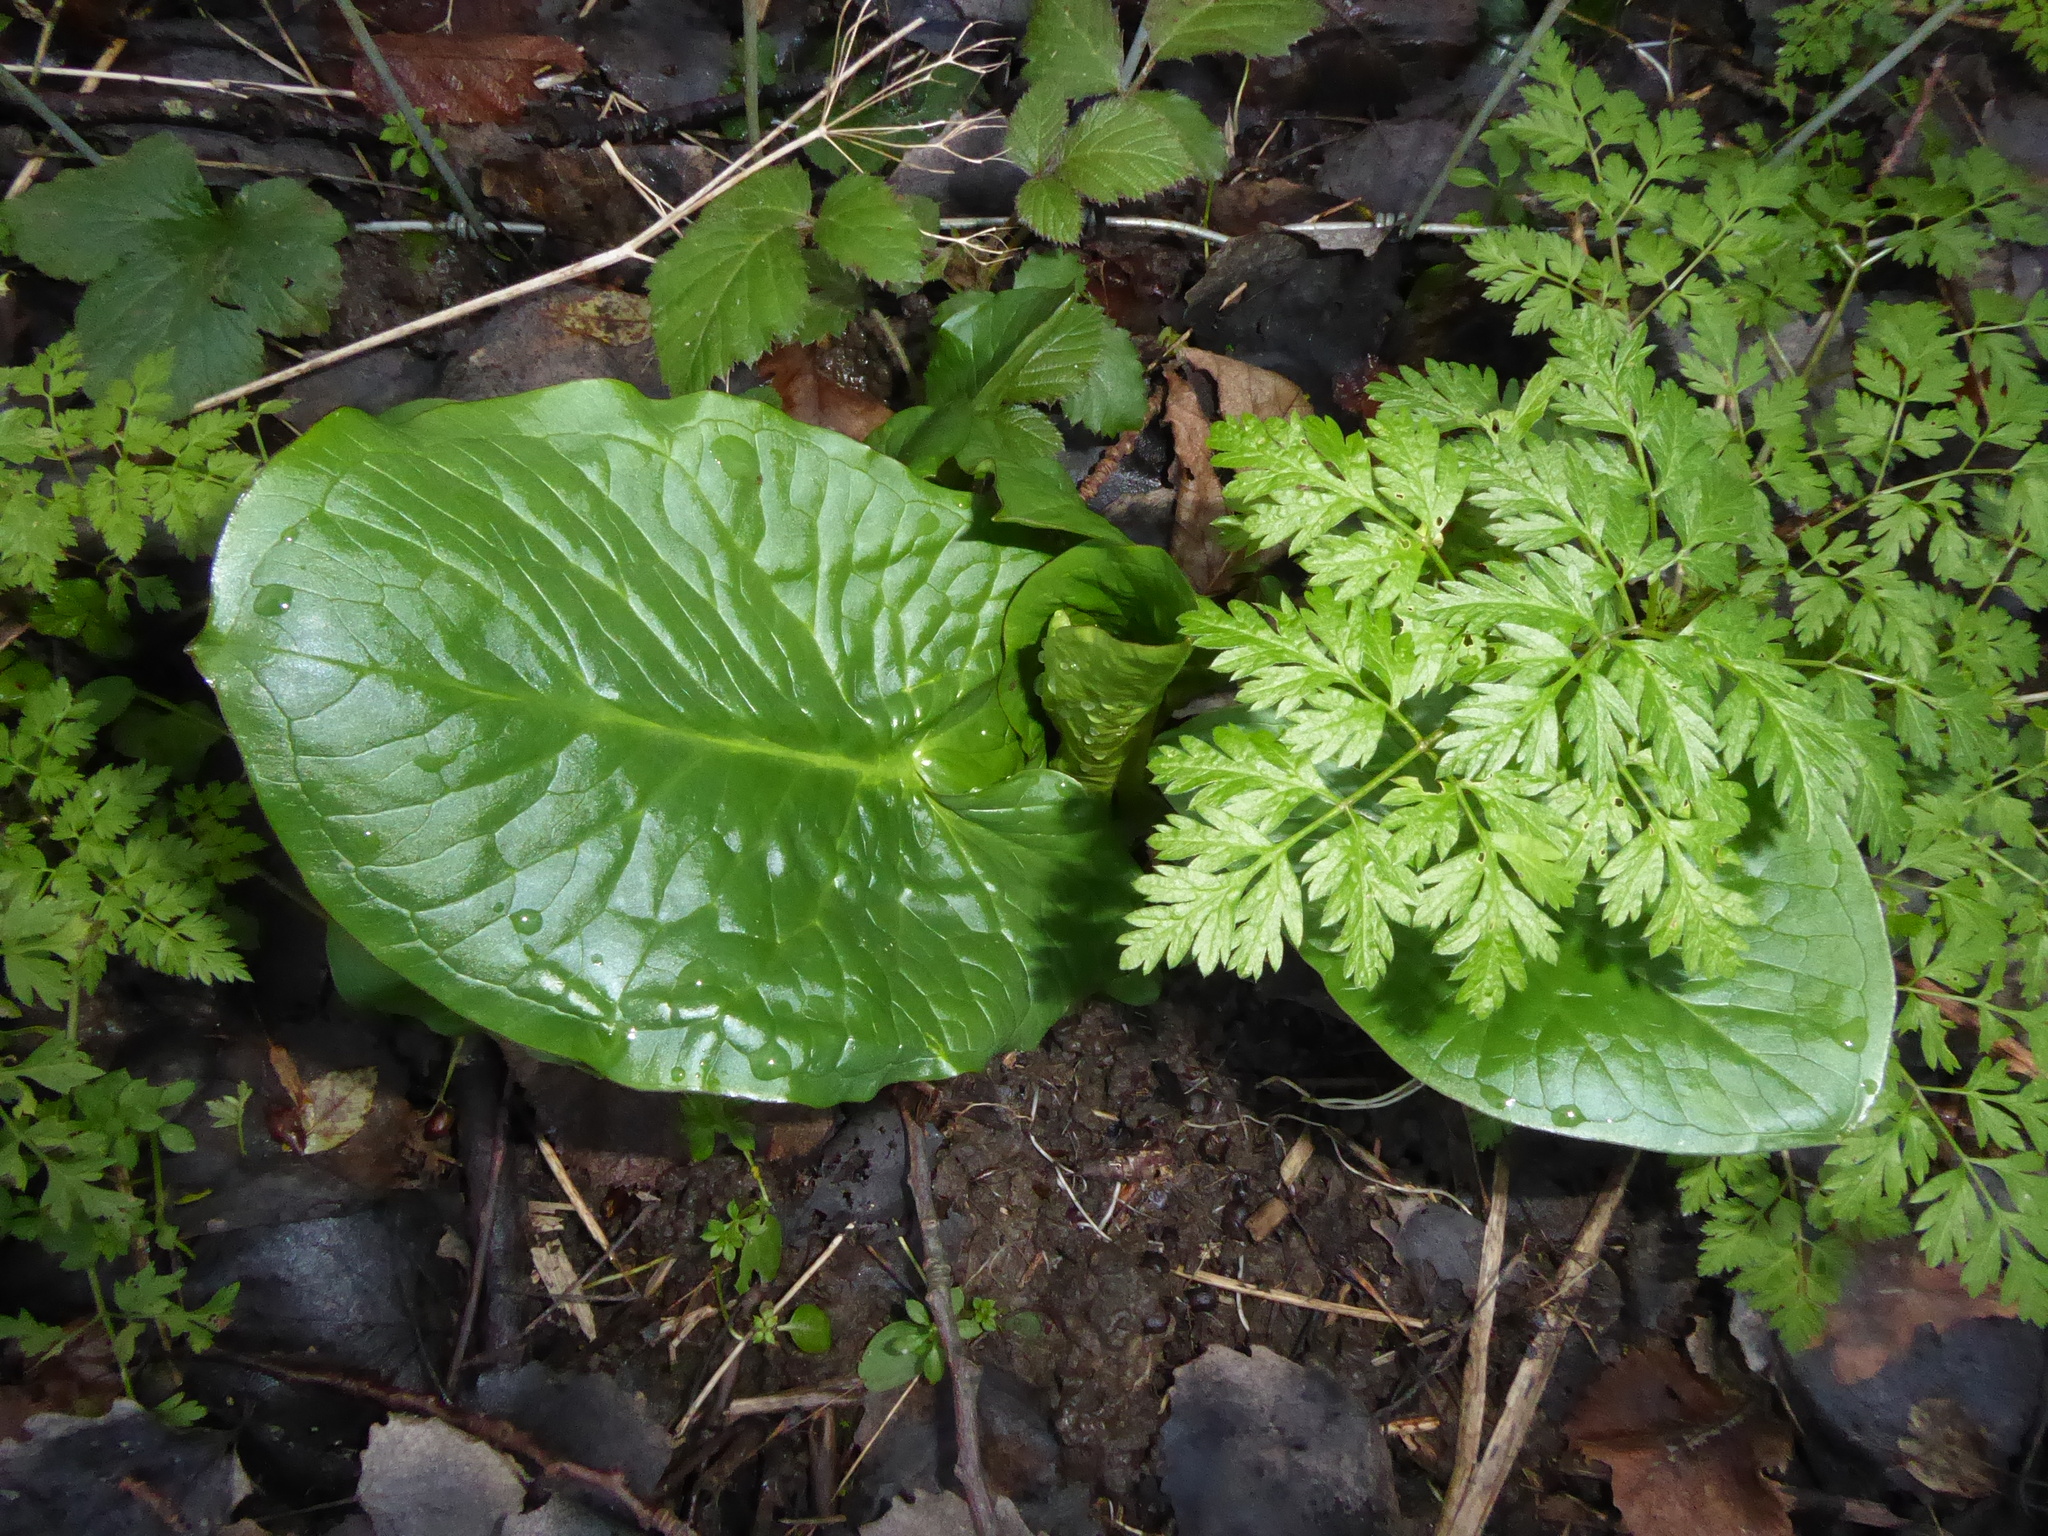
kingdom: Plantae
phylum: Tracheophyta
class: Liliopsida
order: Alismatales
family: Araceae
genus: Arum
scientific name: Arum maculatum
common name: Lords-and-ladies
